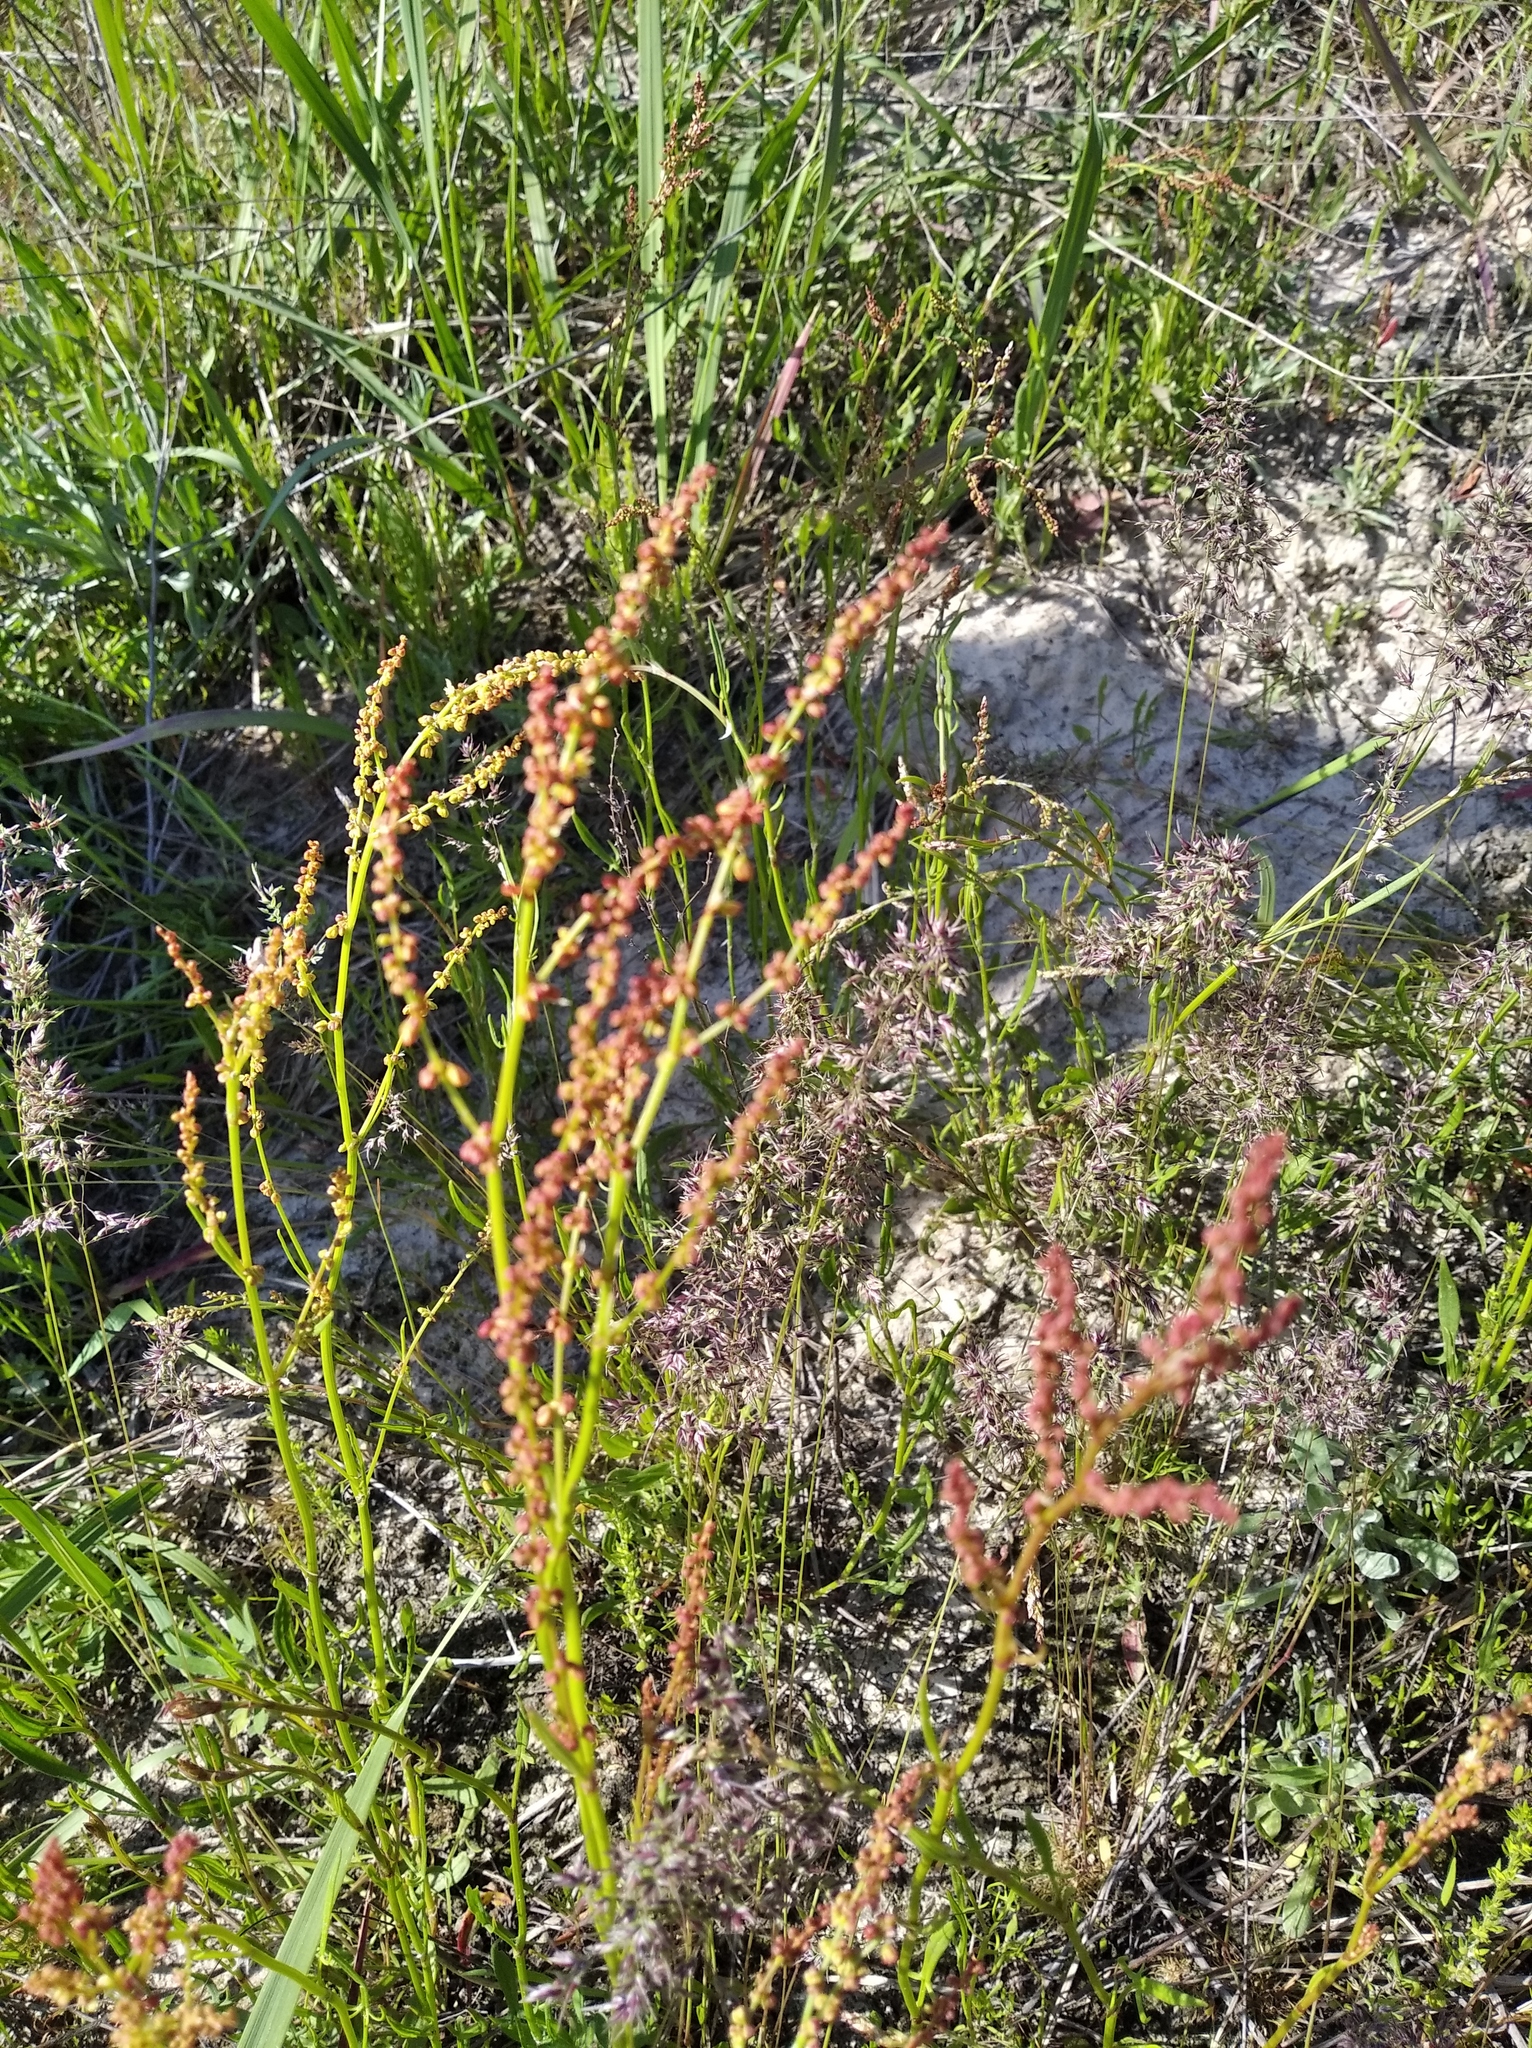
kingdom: Plantae
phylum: Tracheophyta
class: Magnoliopsida
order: Caryophyllales
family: Polygonaceae
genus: Rumex
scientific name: Rumex acetosella
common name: Common sheep sorrel
